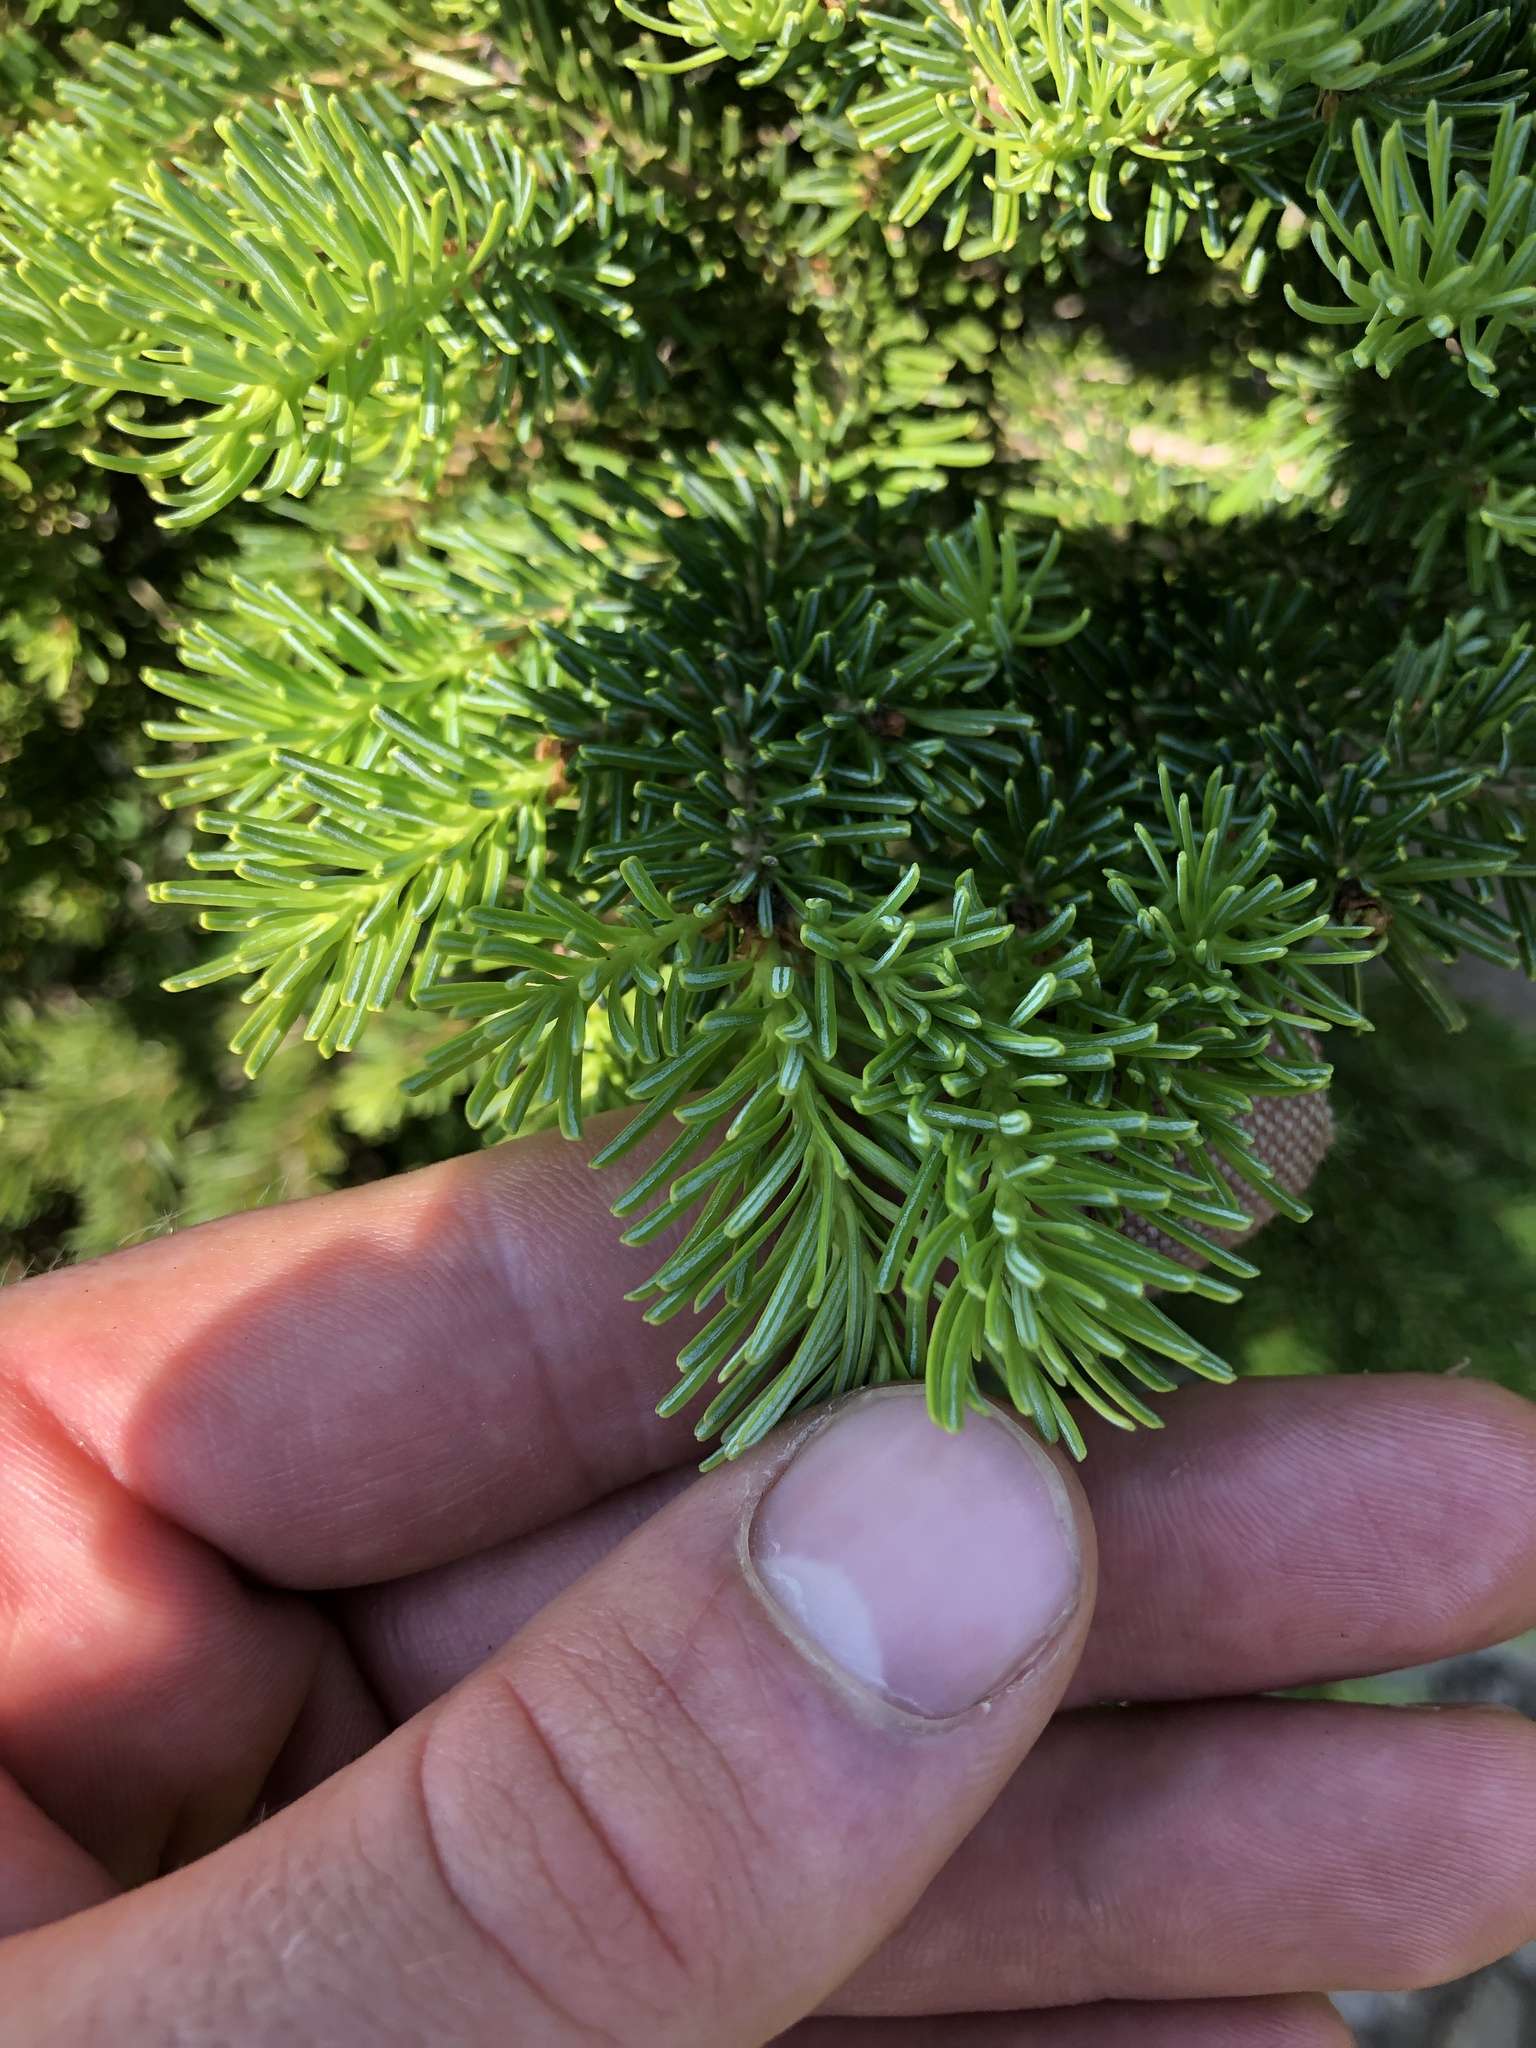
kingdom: Plantae
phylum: Tracheophyta
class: Pinopsida
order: Pinales
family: Pinaceae
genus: Abies
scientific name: Abies lasiocarpa
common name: Subalpine fir
